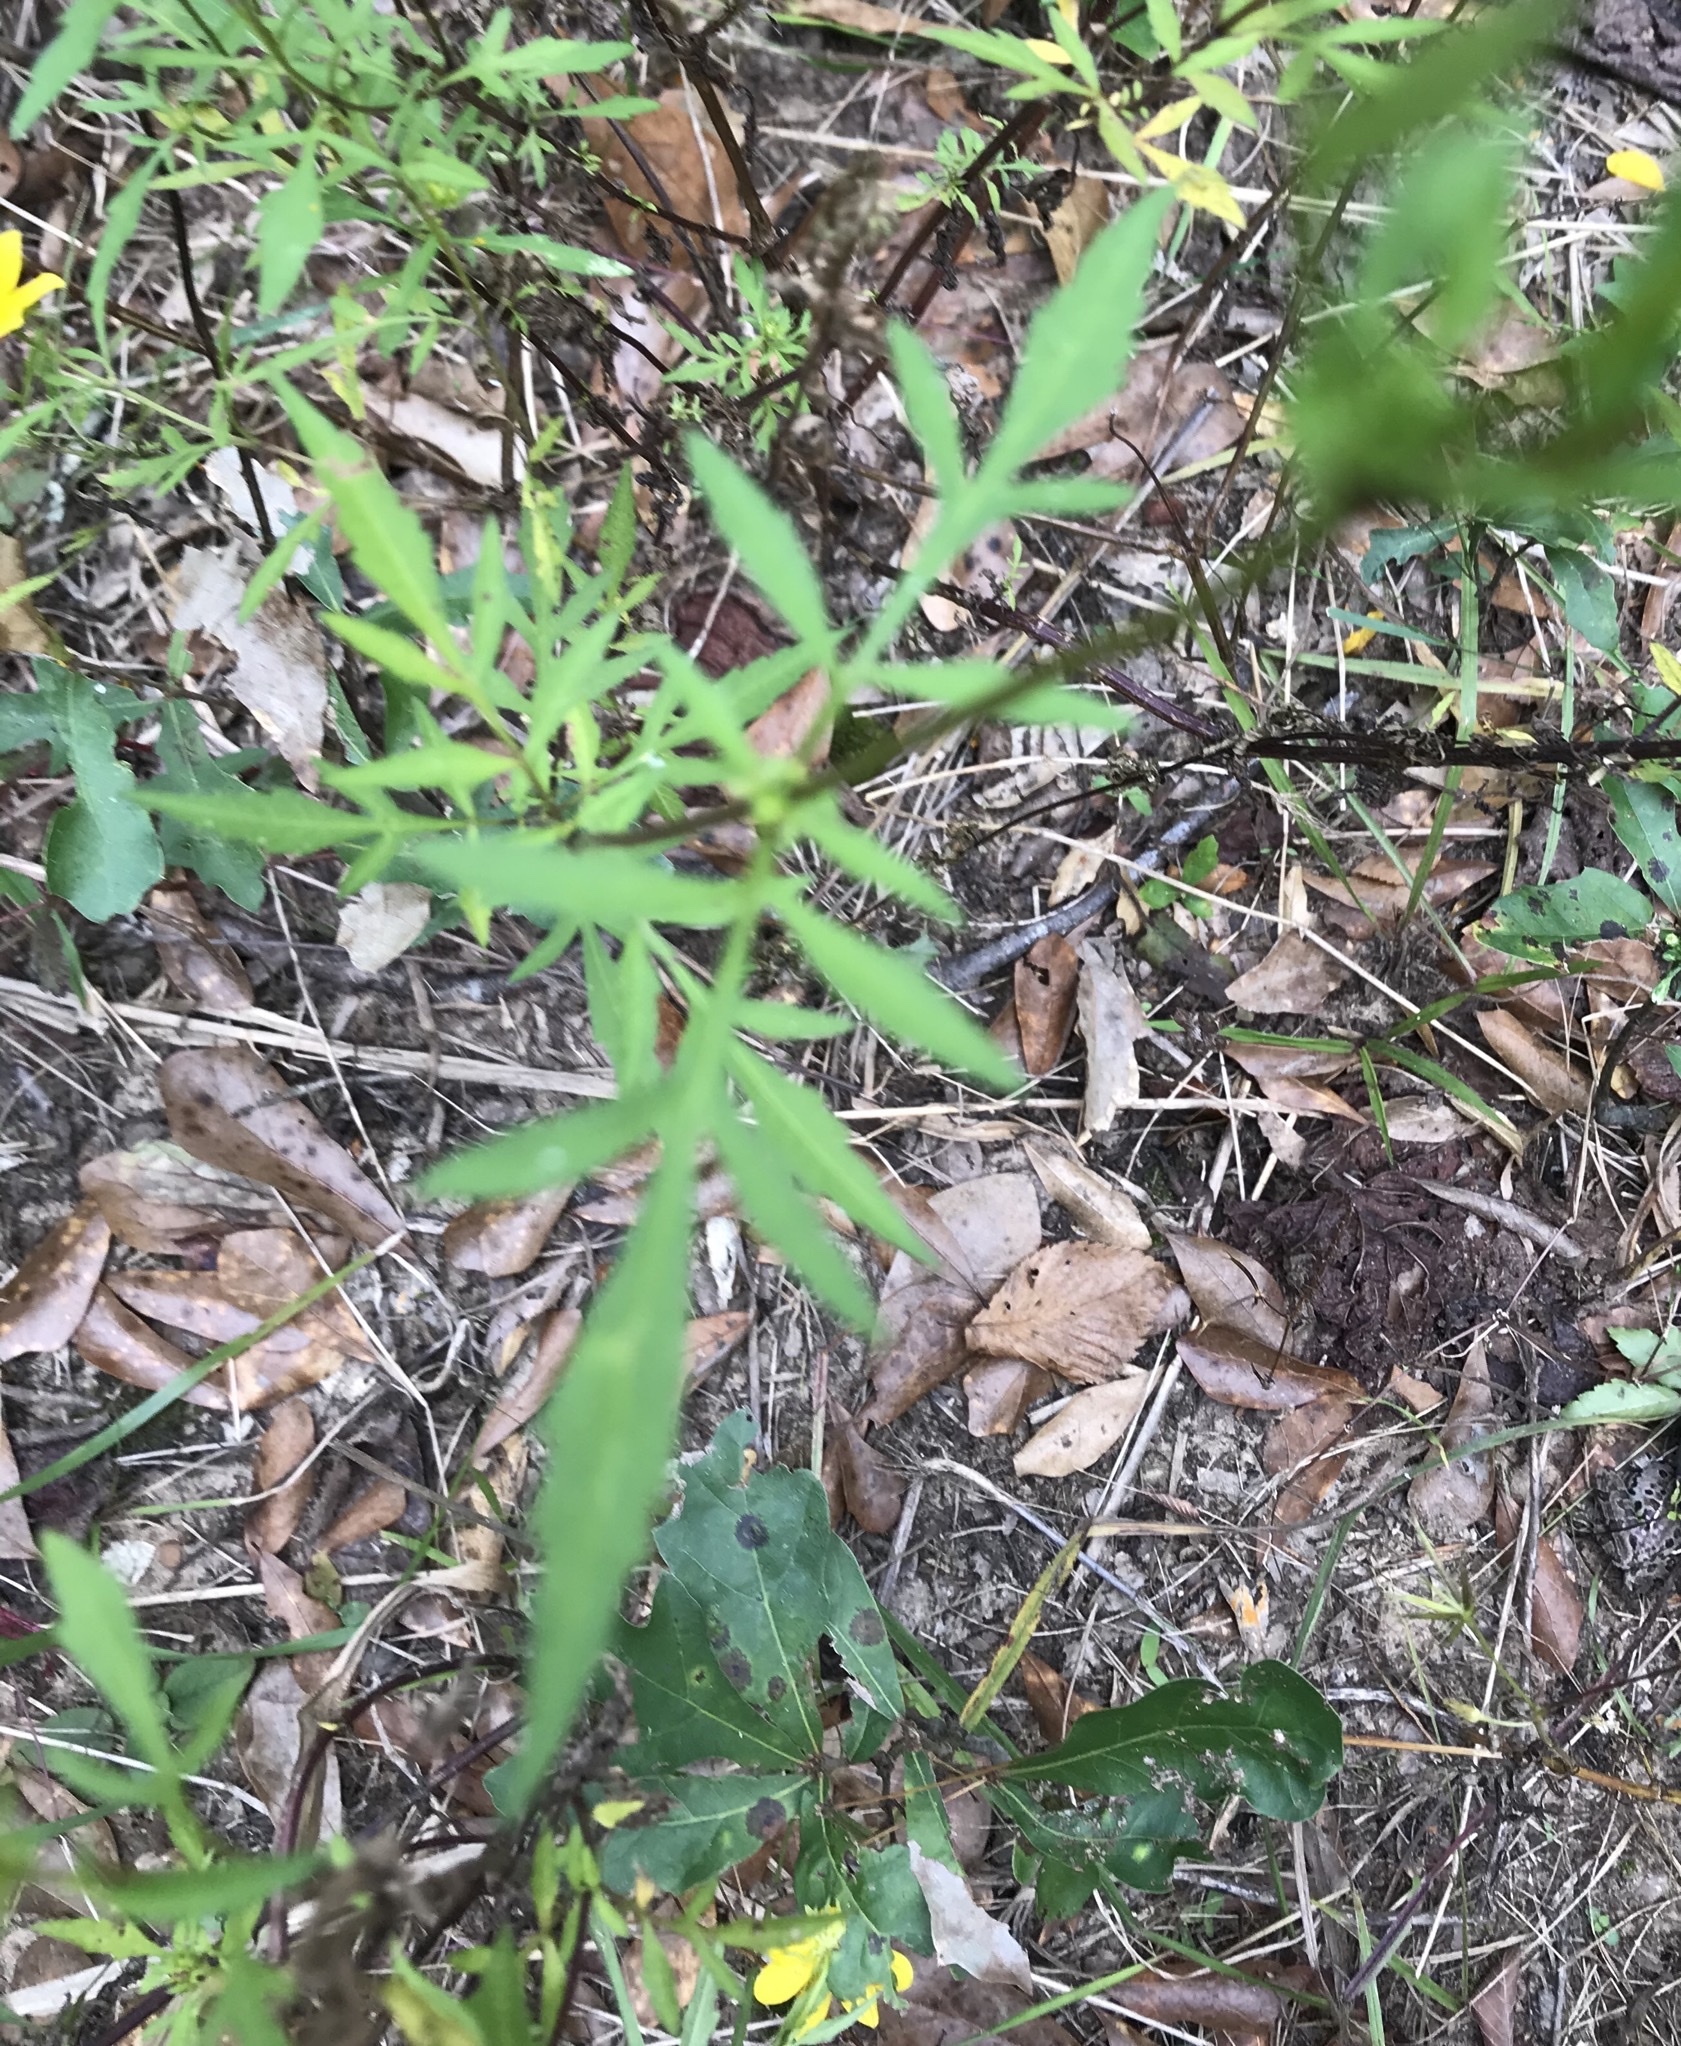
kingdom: Plantae
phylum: Tracheophyta
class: Magnoliopsida
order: Asterales
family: Asteraceae
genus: Bidens
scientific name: Bidens aristosa
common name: Western tickseed
